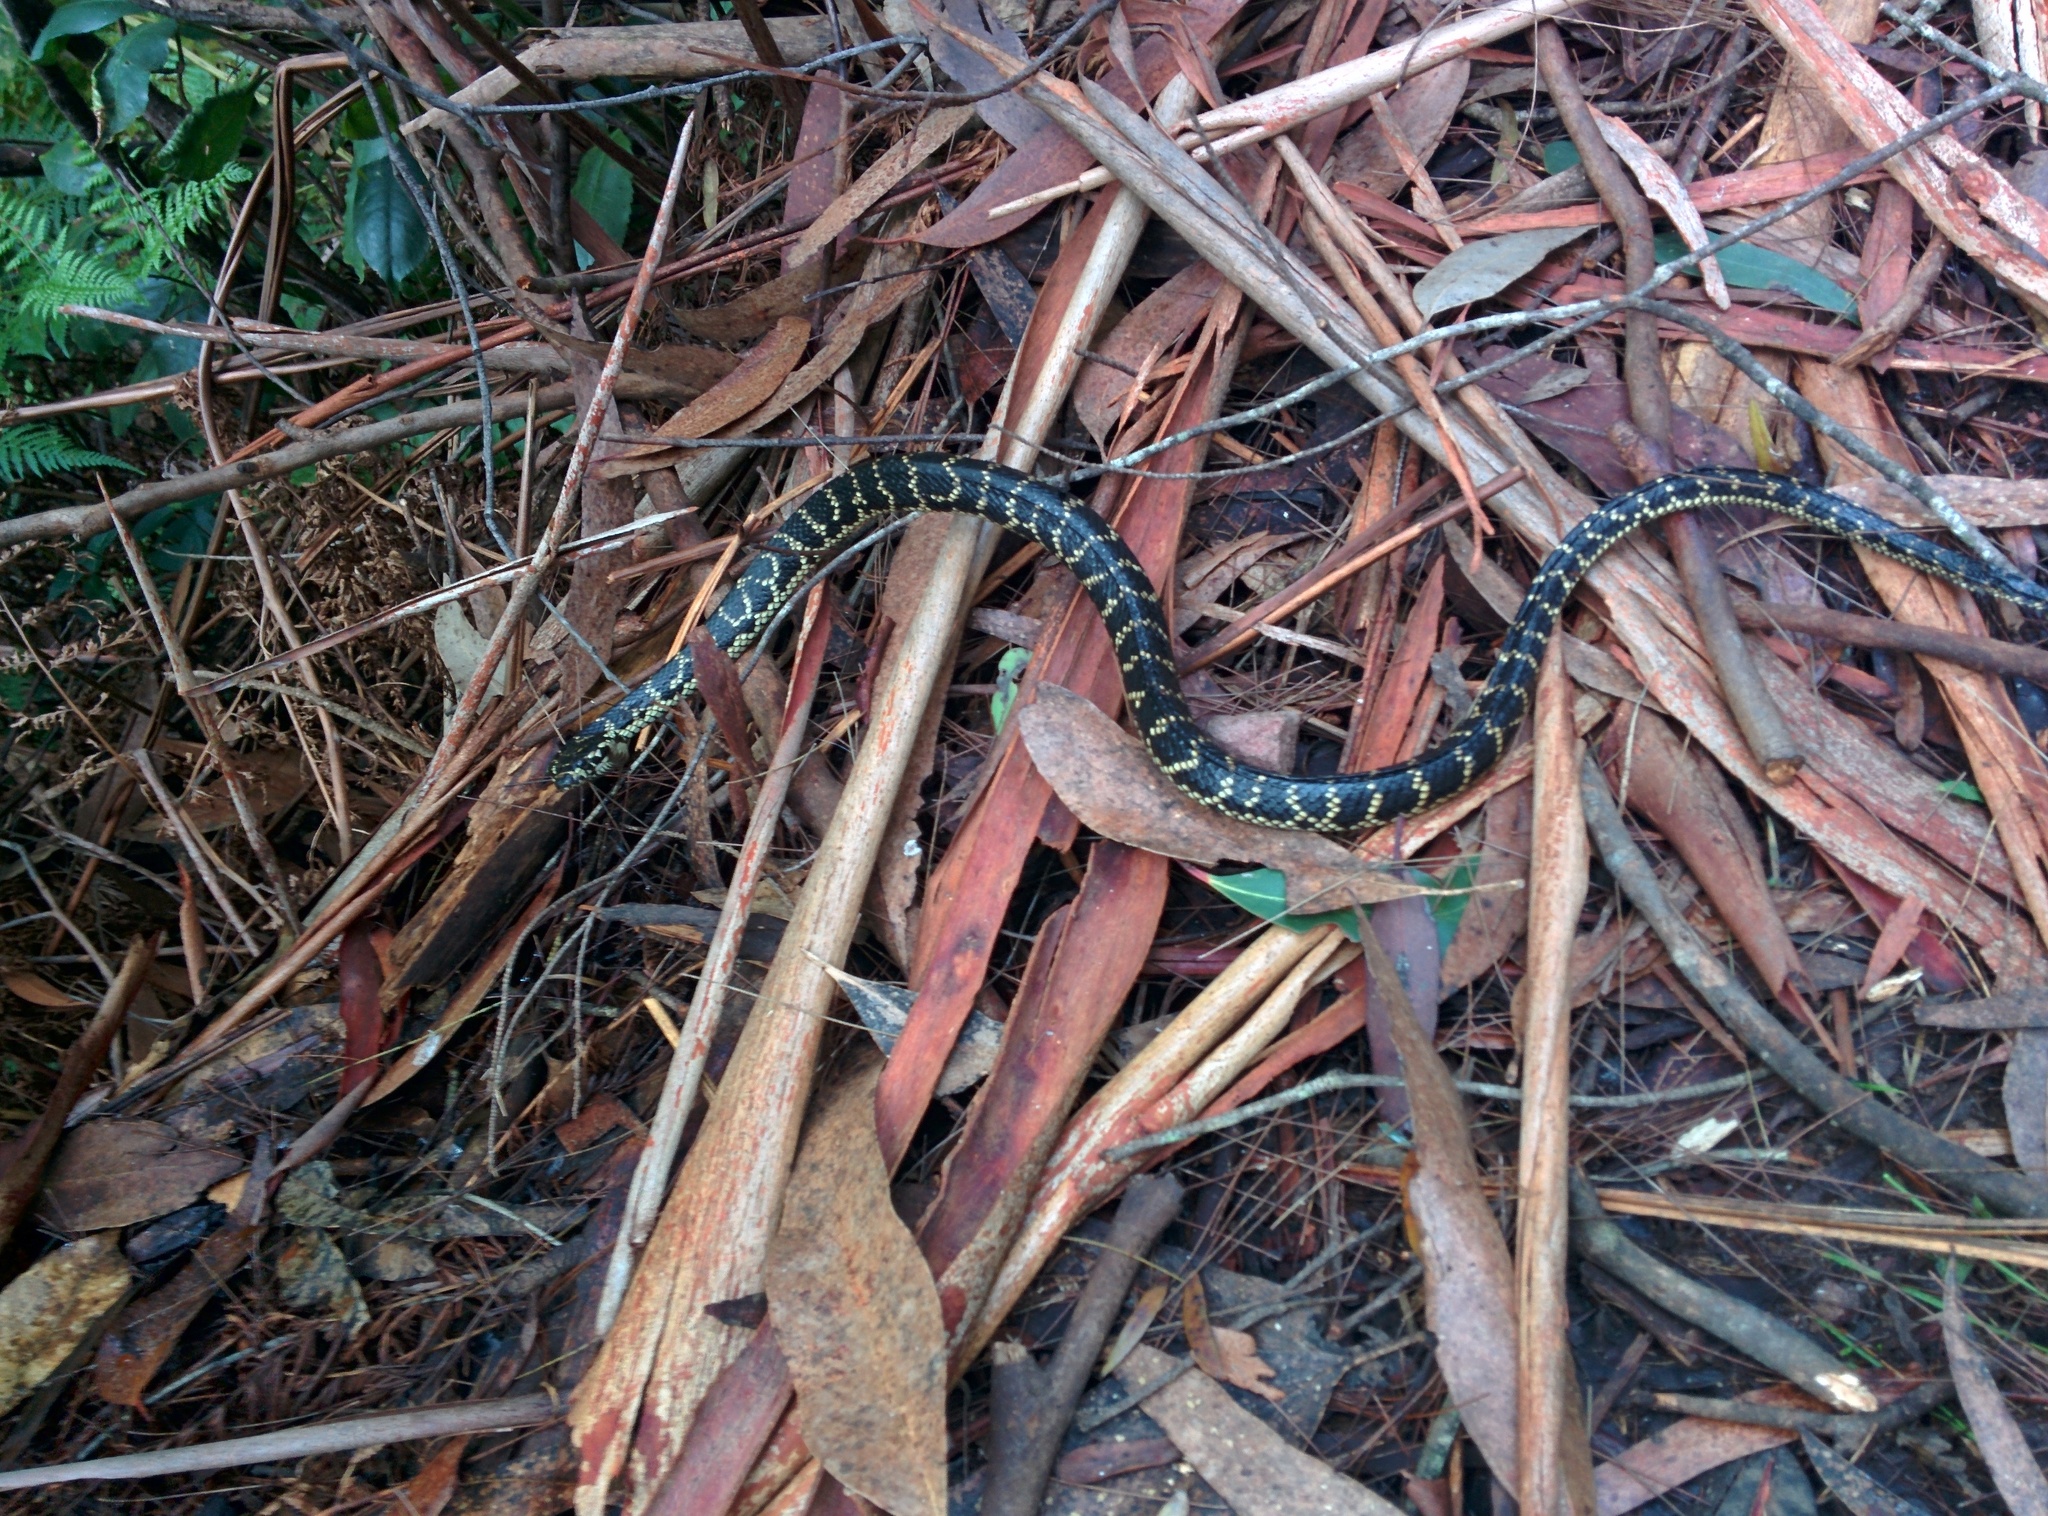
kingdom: Animalia
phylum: Chordata
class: Squamata
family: Elapidae
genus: Hoplocephalus
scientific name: Hoplocephalus bungaroides
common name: Broad-headed snake
